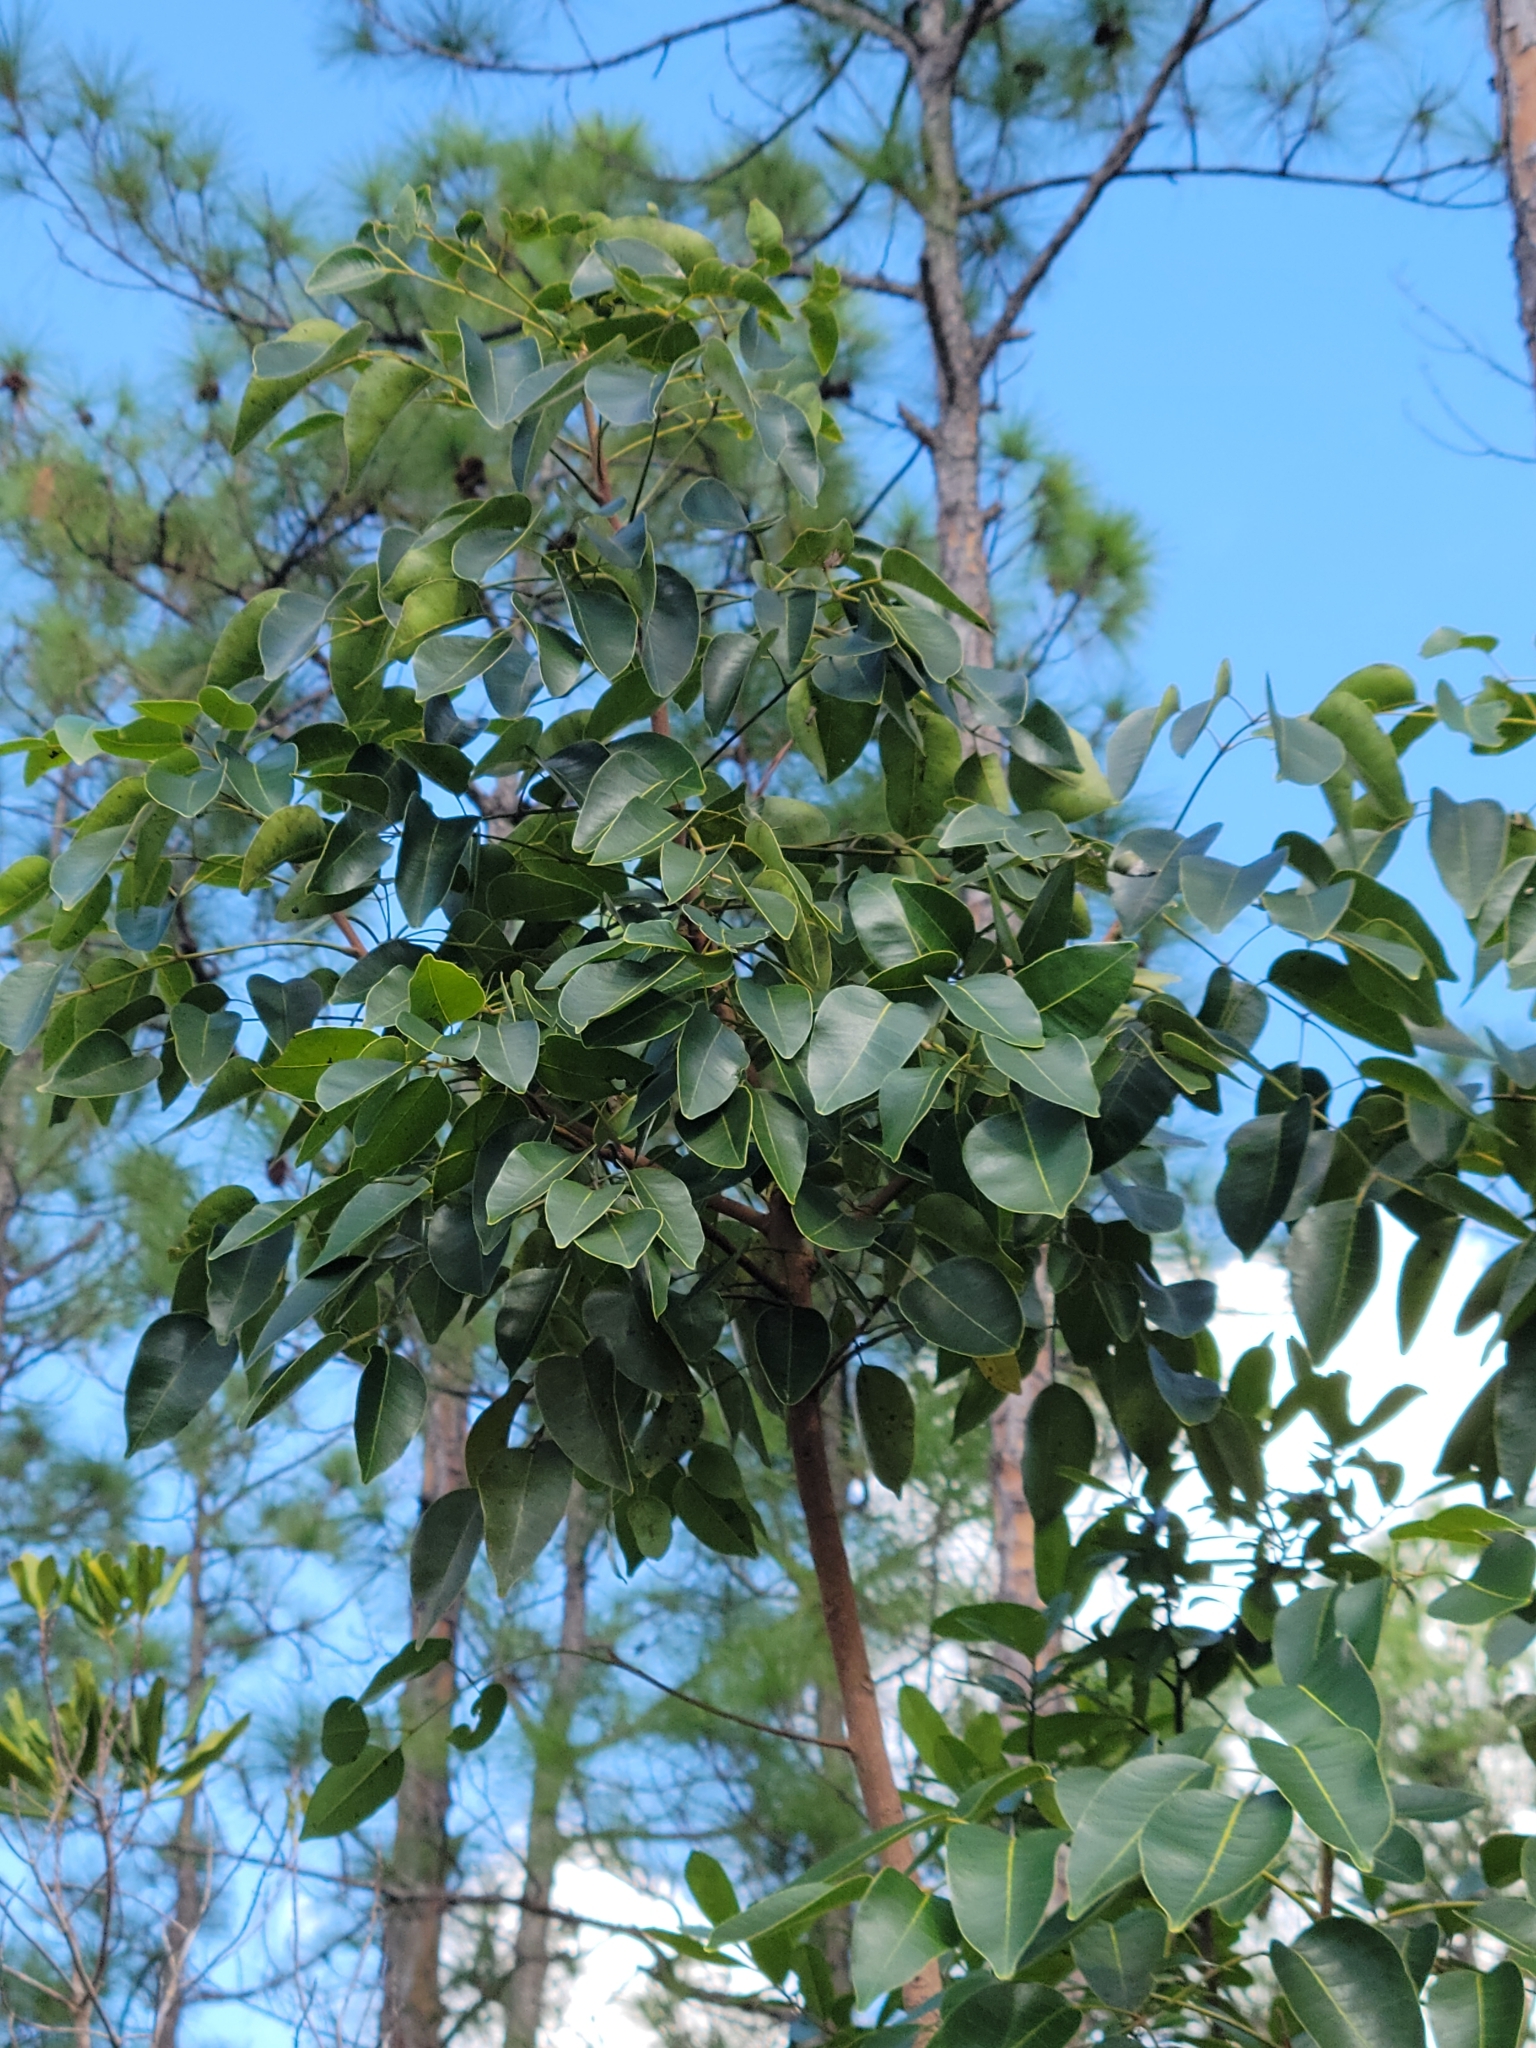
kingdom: Plantae
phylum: Tracheophyta
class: Magnoliopsida
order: Sapindales
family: Anacardiaceae
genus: Metopium
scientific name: Metopium toxiferum
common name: Florida poisontree
